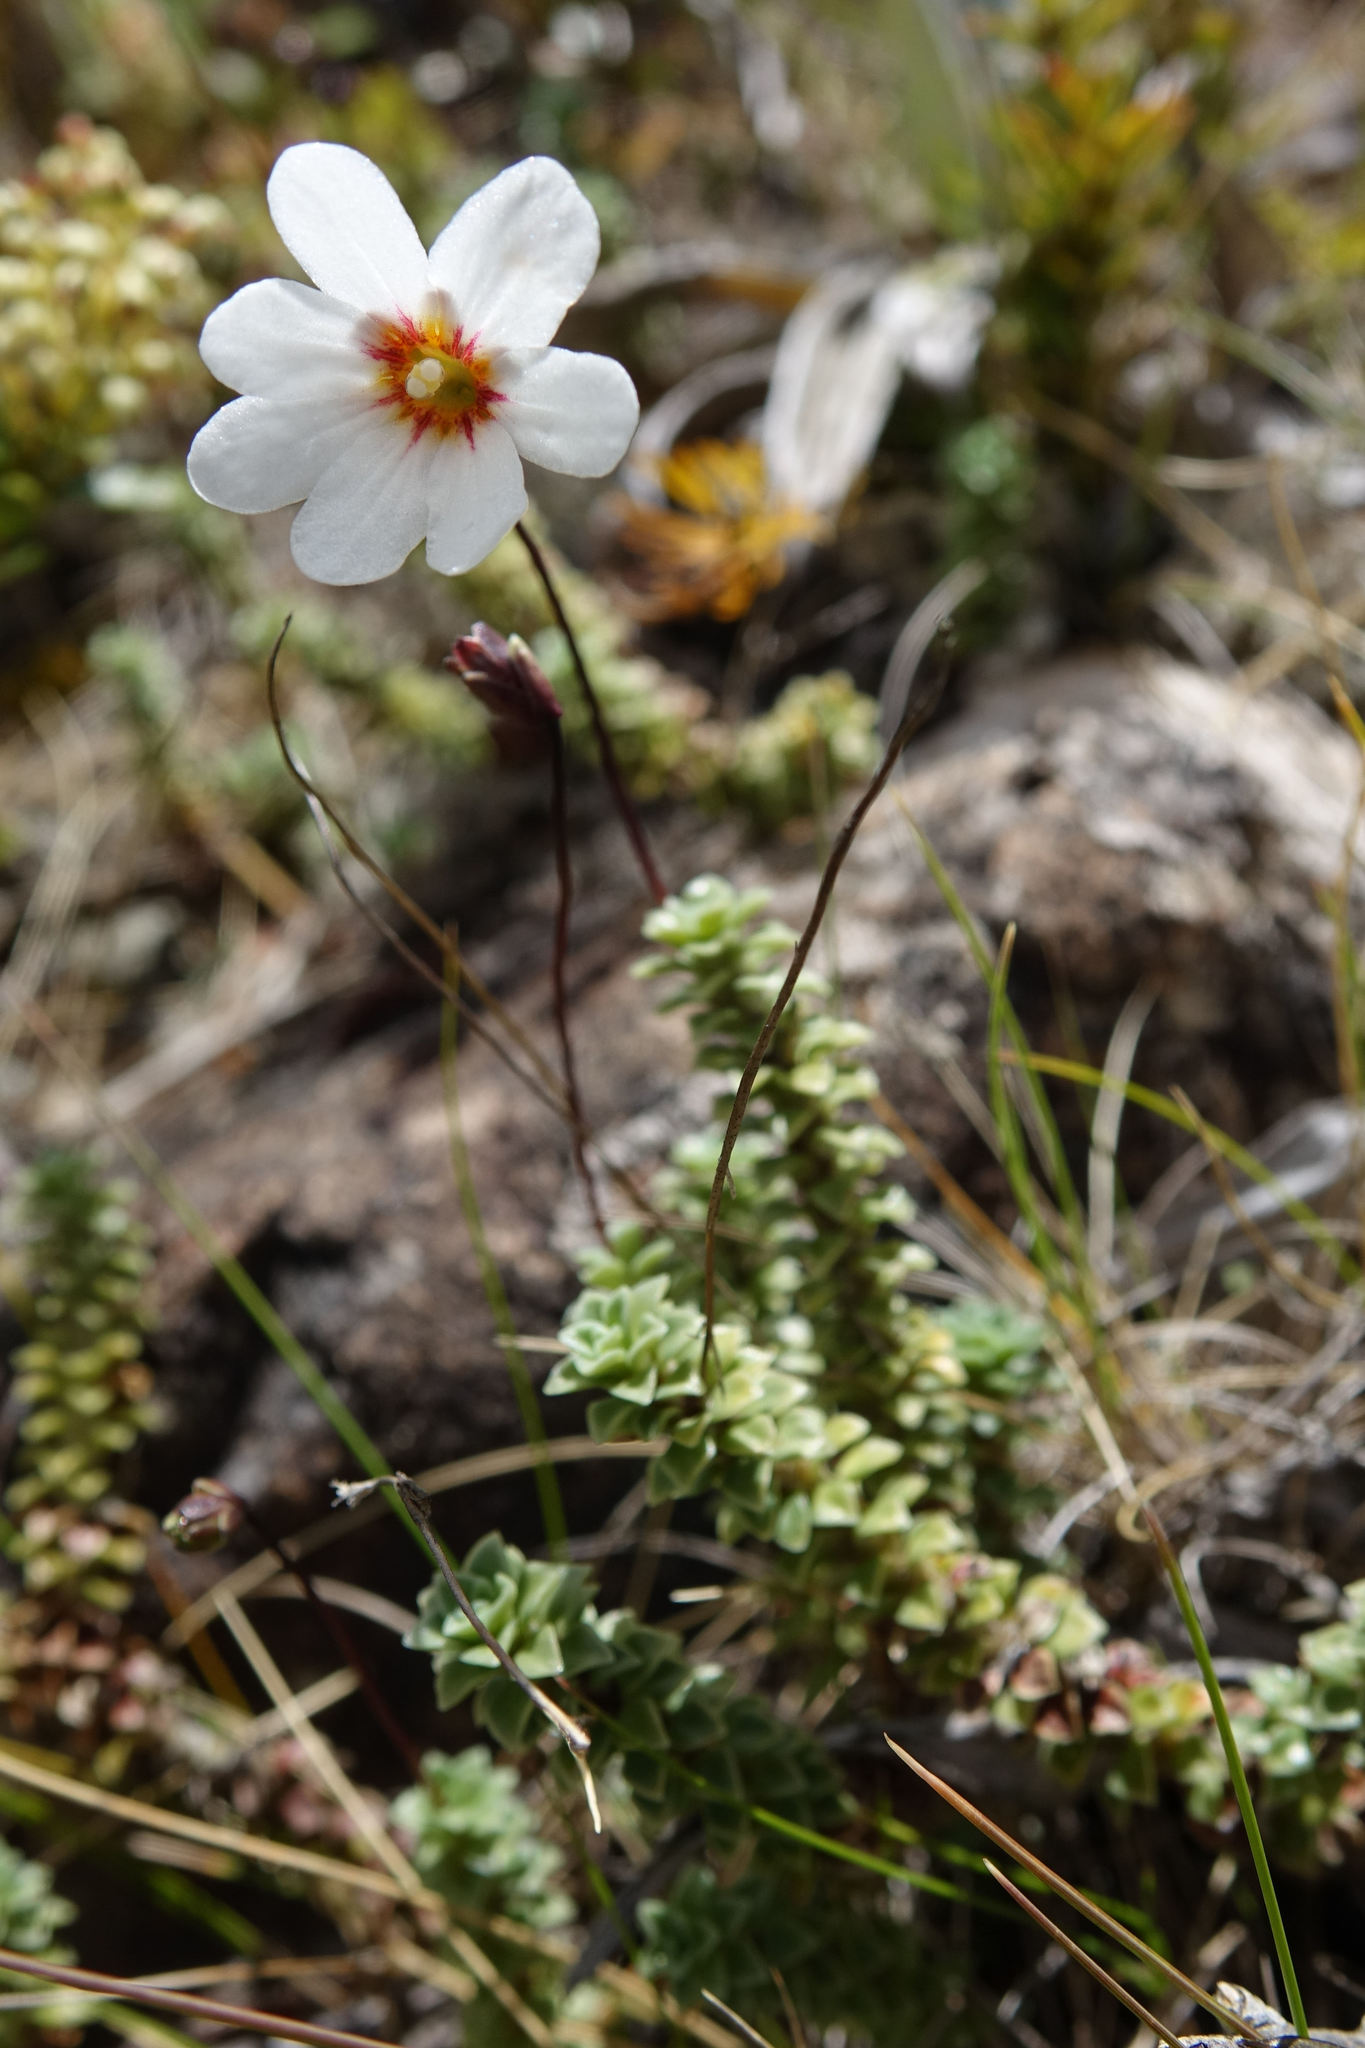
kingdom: Plantae
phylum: Tracheophyta
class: Magnoliopsida
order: Asterales
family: Stylidiaceae
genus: Forstera
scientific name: Forstera sedifolia
